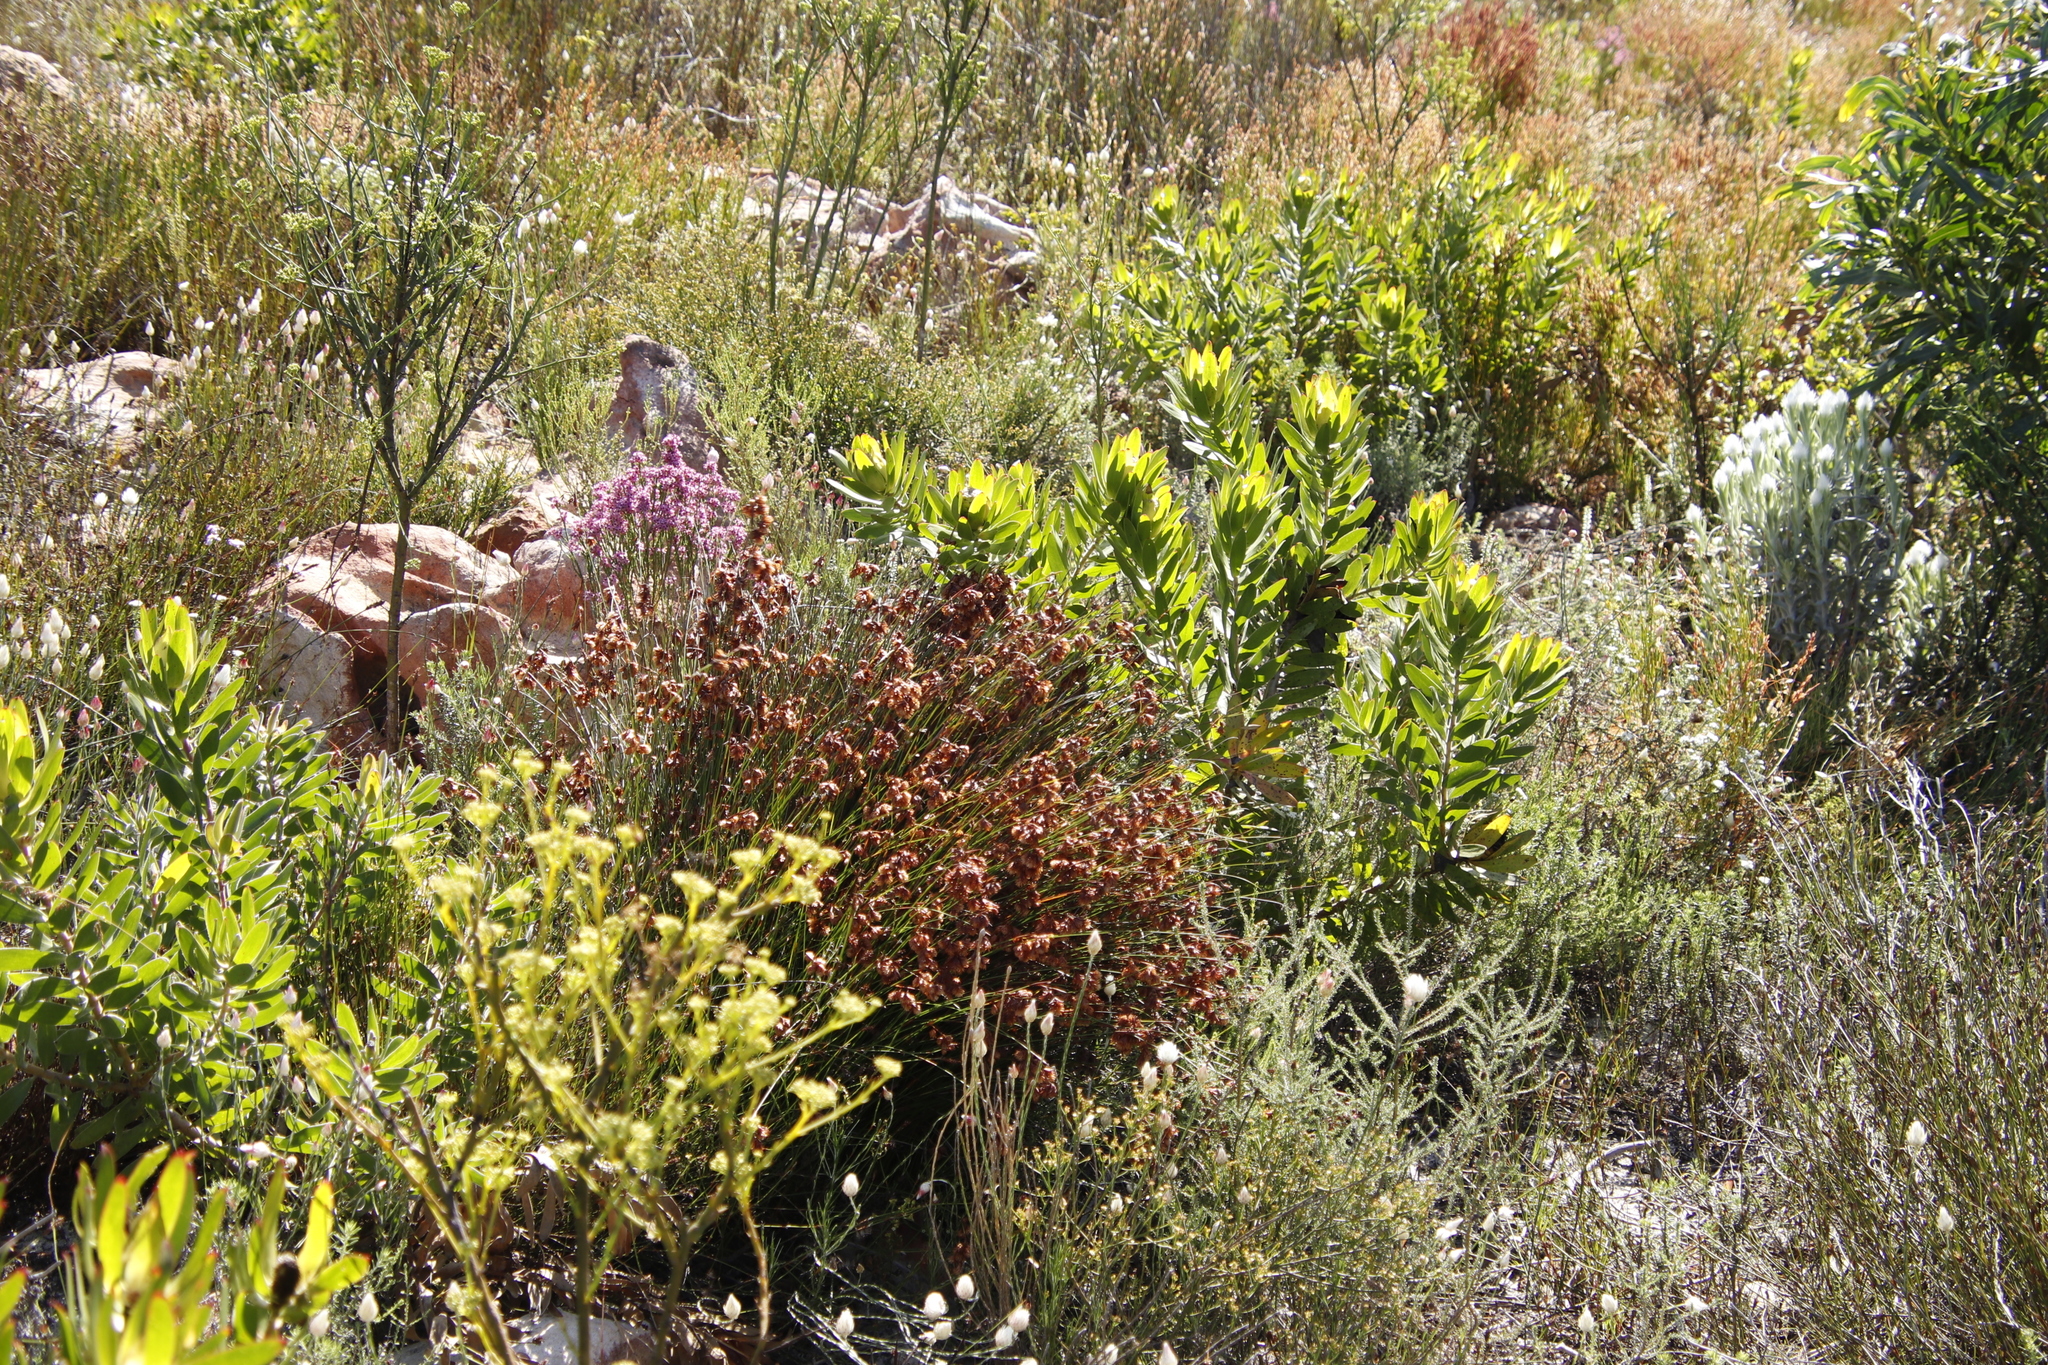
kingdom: Plantae
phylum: Tracheophyta
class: Magnoliopsida
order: Proteales
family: Proteaceae
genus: Leucadendron
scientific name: Leucadendron laureolum
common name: Golden sunshinebush
